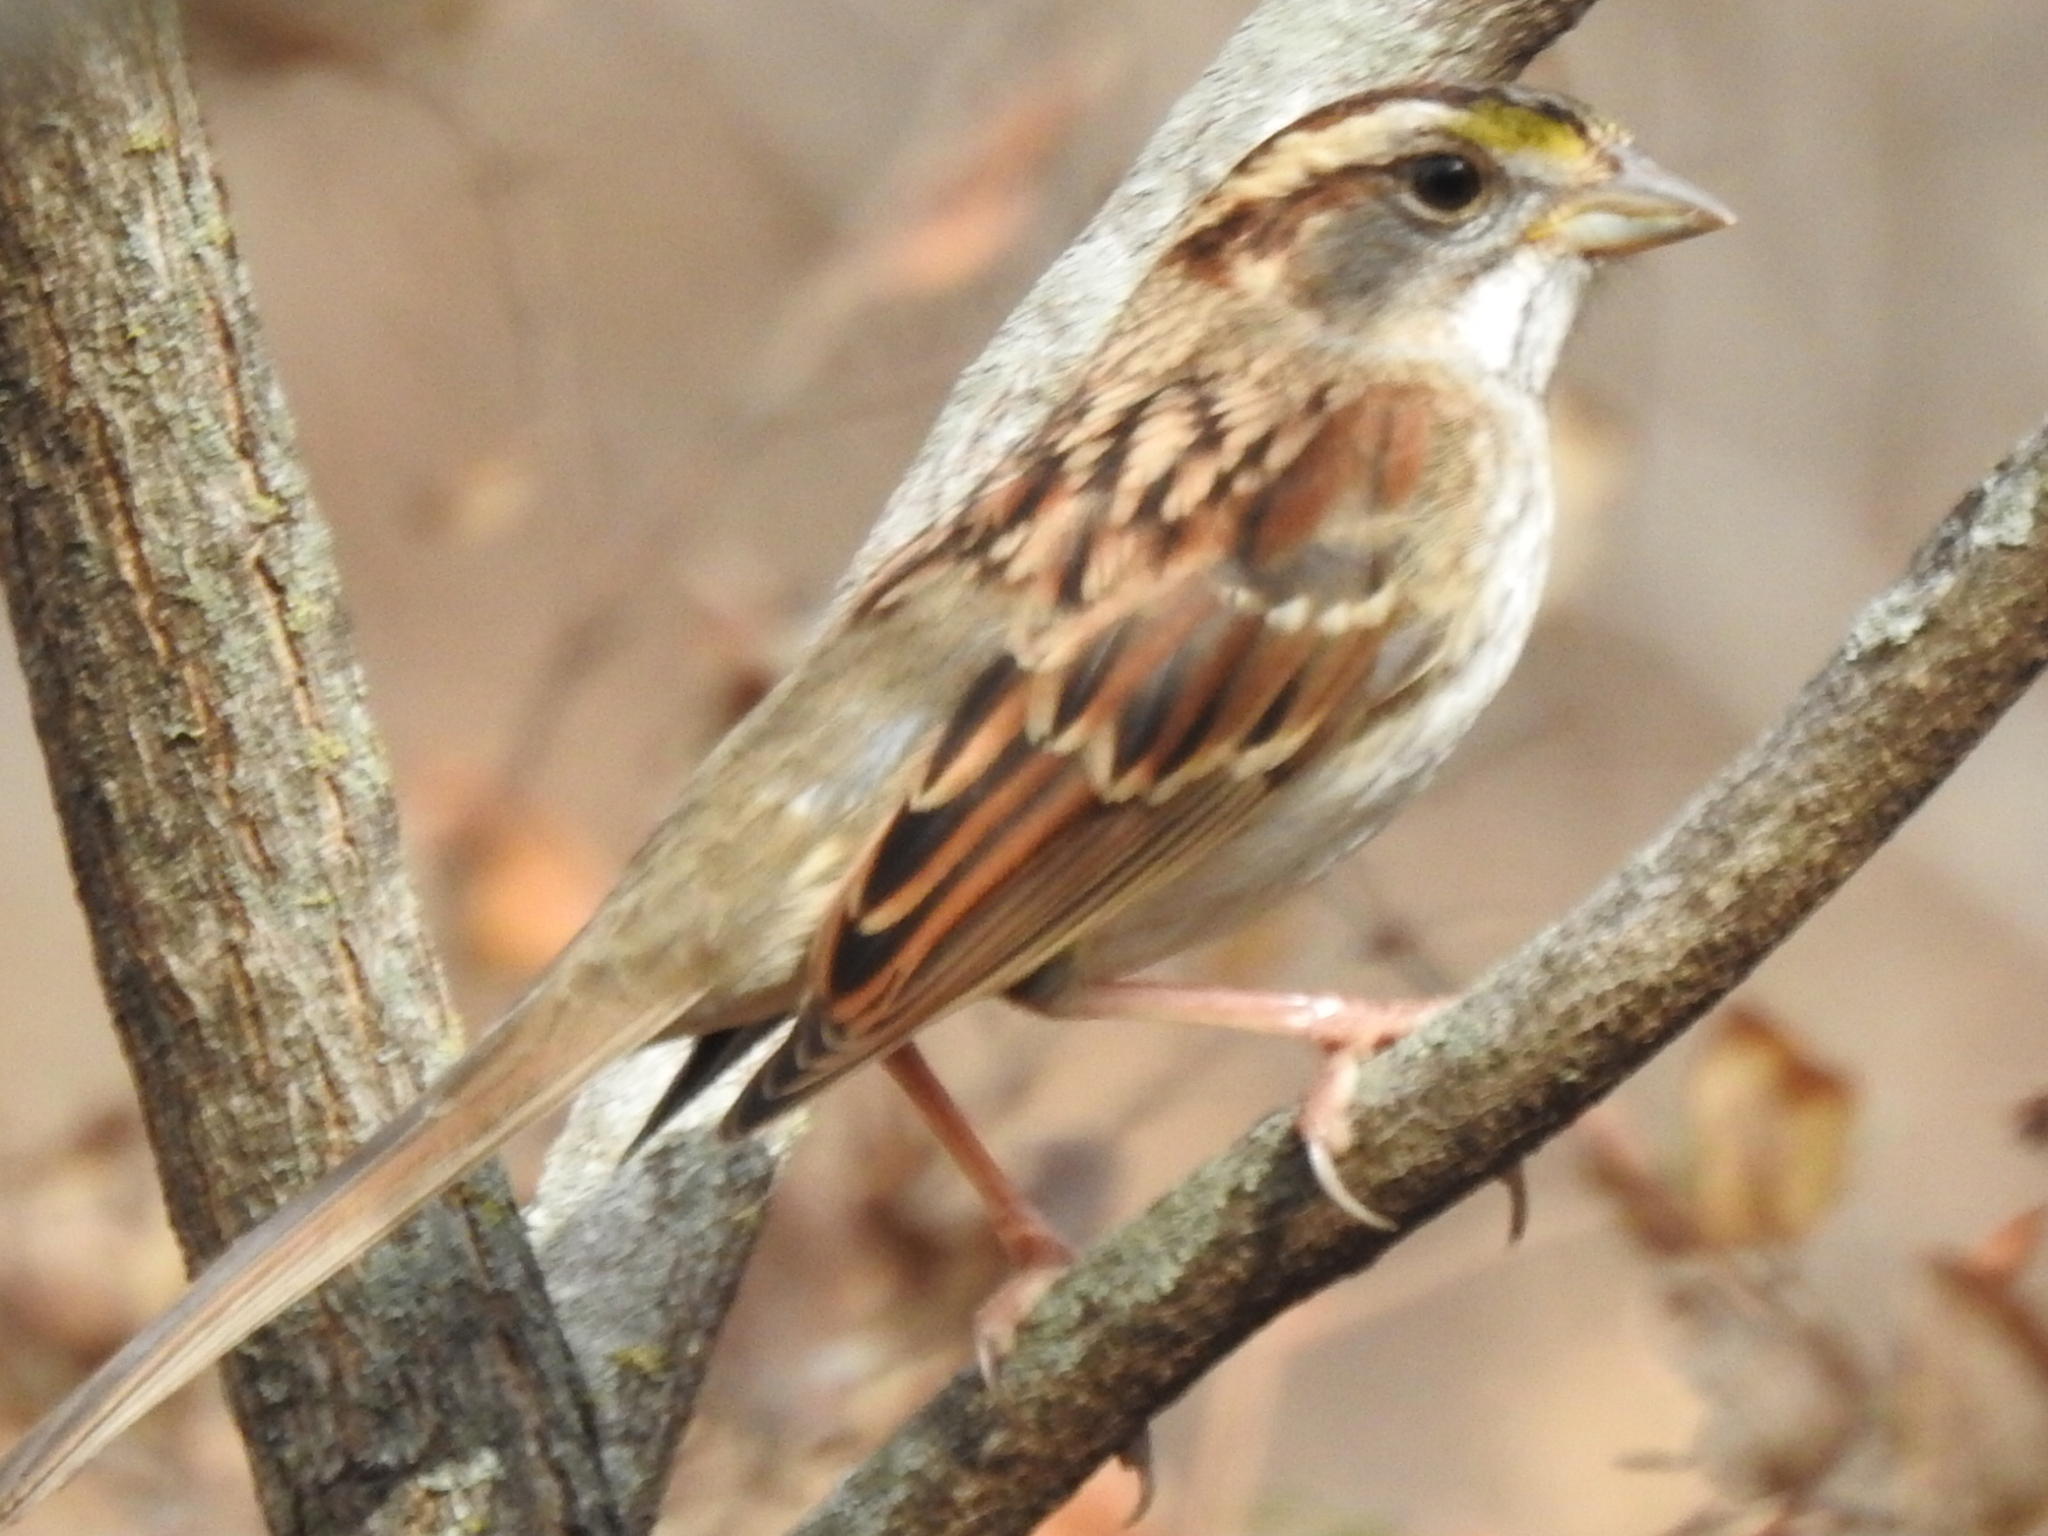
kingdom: Animalia
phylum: Chordata
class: Aves
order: Passeriformes
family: Passerellidae
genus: Zonotrichia
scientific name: Zonotrichia albicollis
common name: White-throated sparrow
